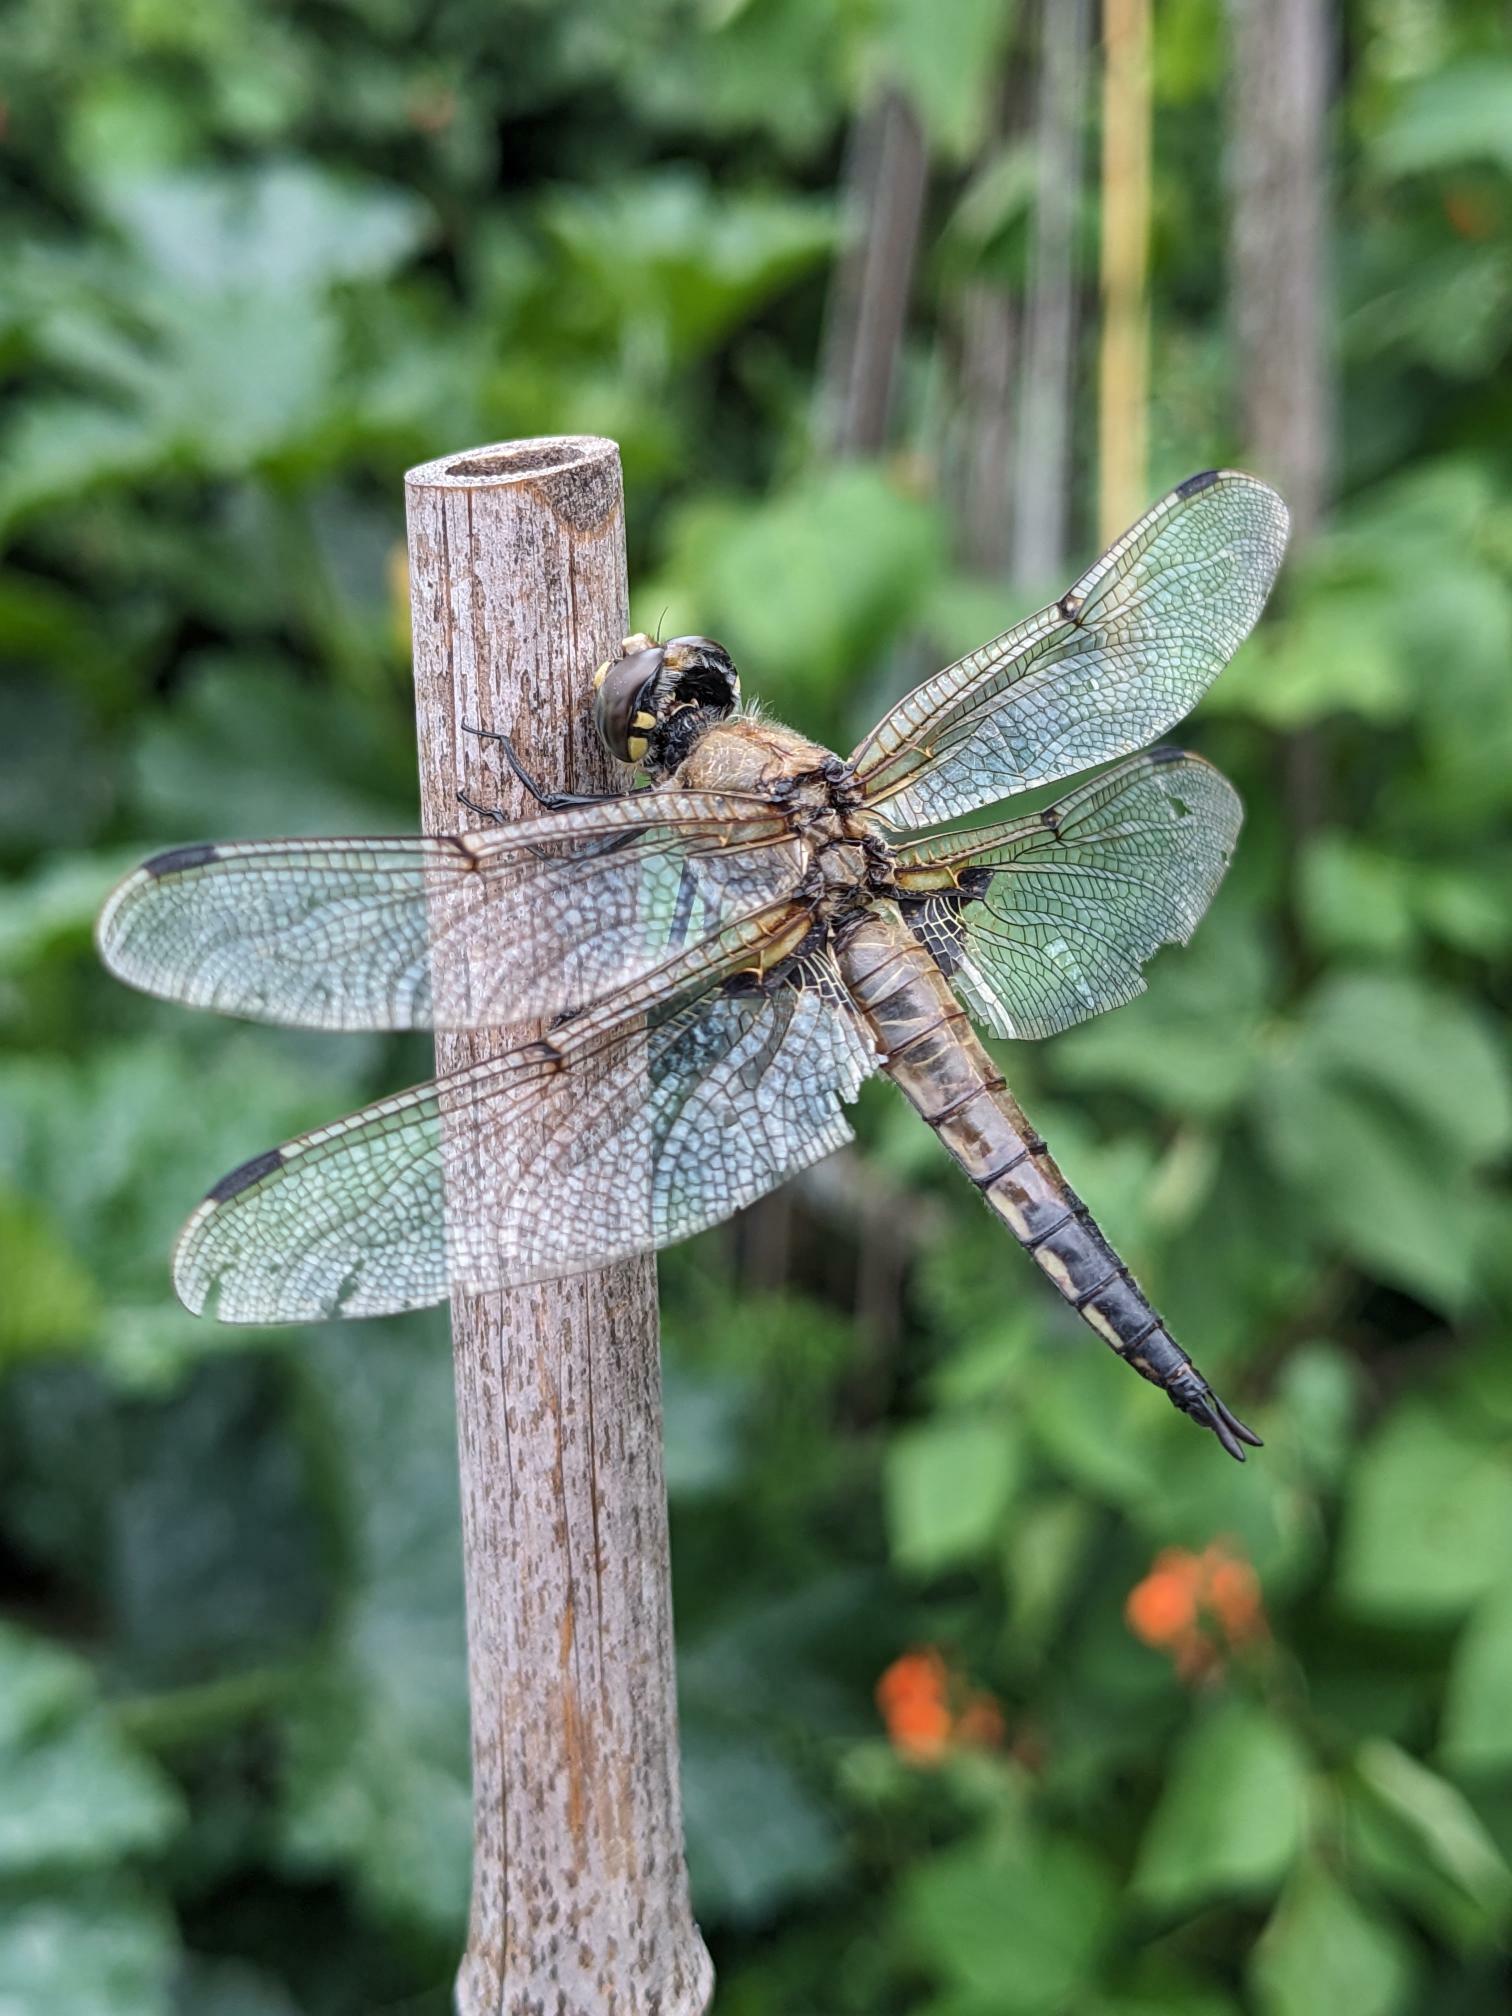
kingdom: Animalia
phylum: Arthropoda
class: Insecta
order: Odonata
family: Libellulidae
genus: Libellula
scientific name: Libellula quadrimaculata
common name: Four-spotted chaser
